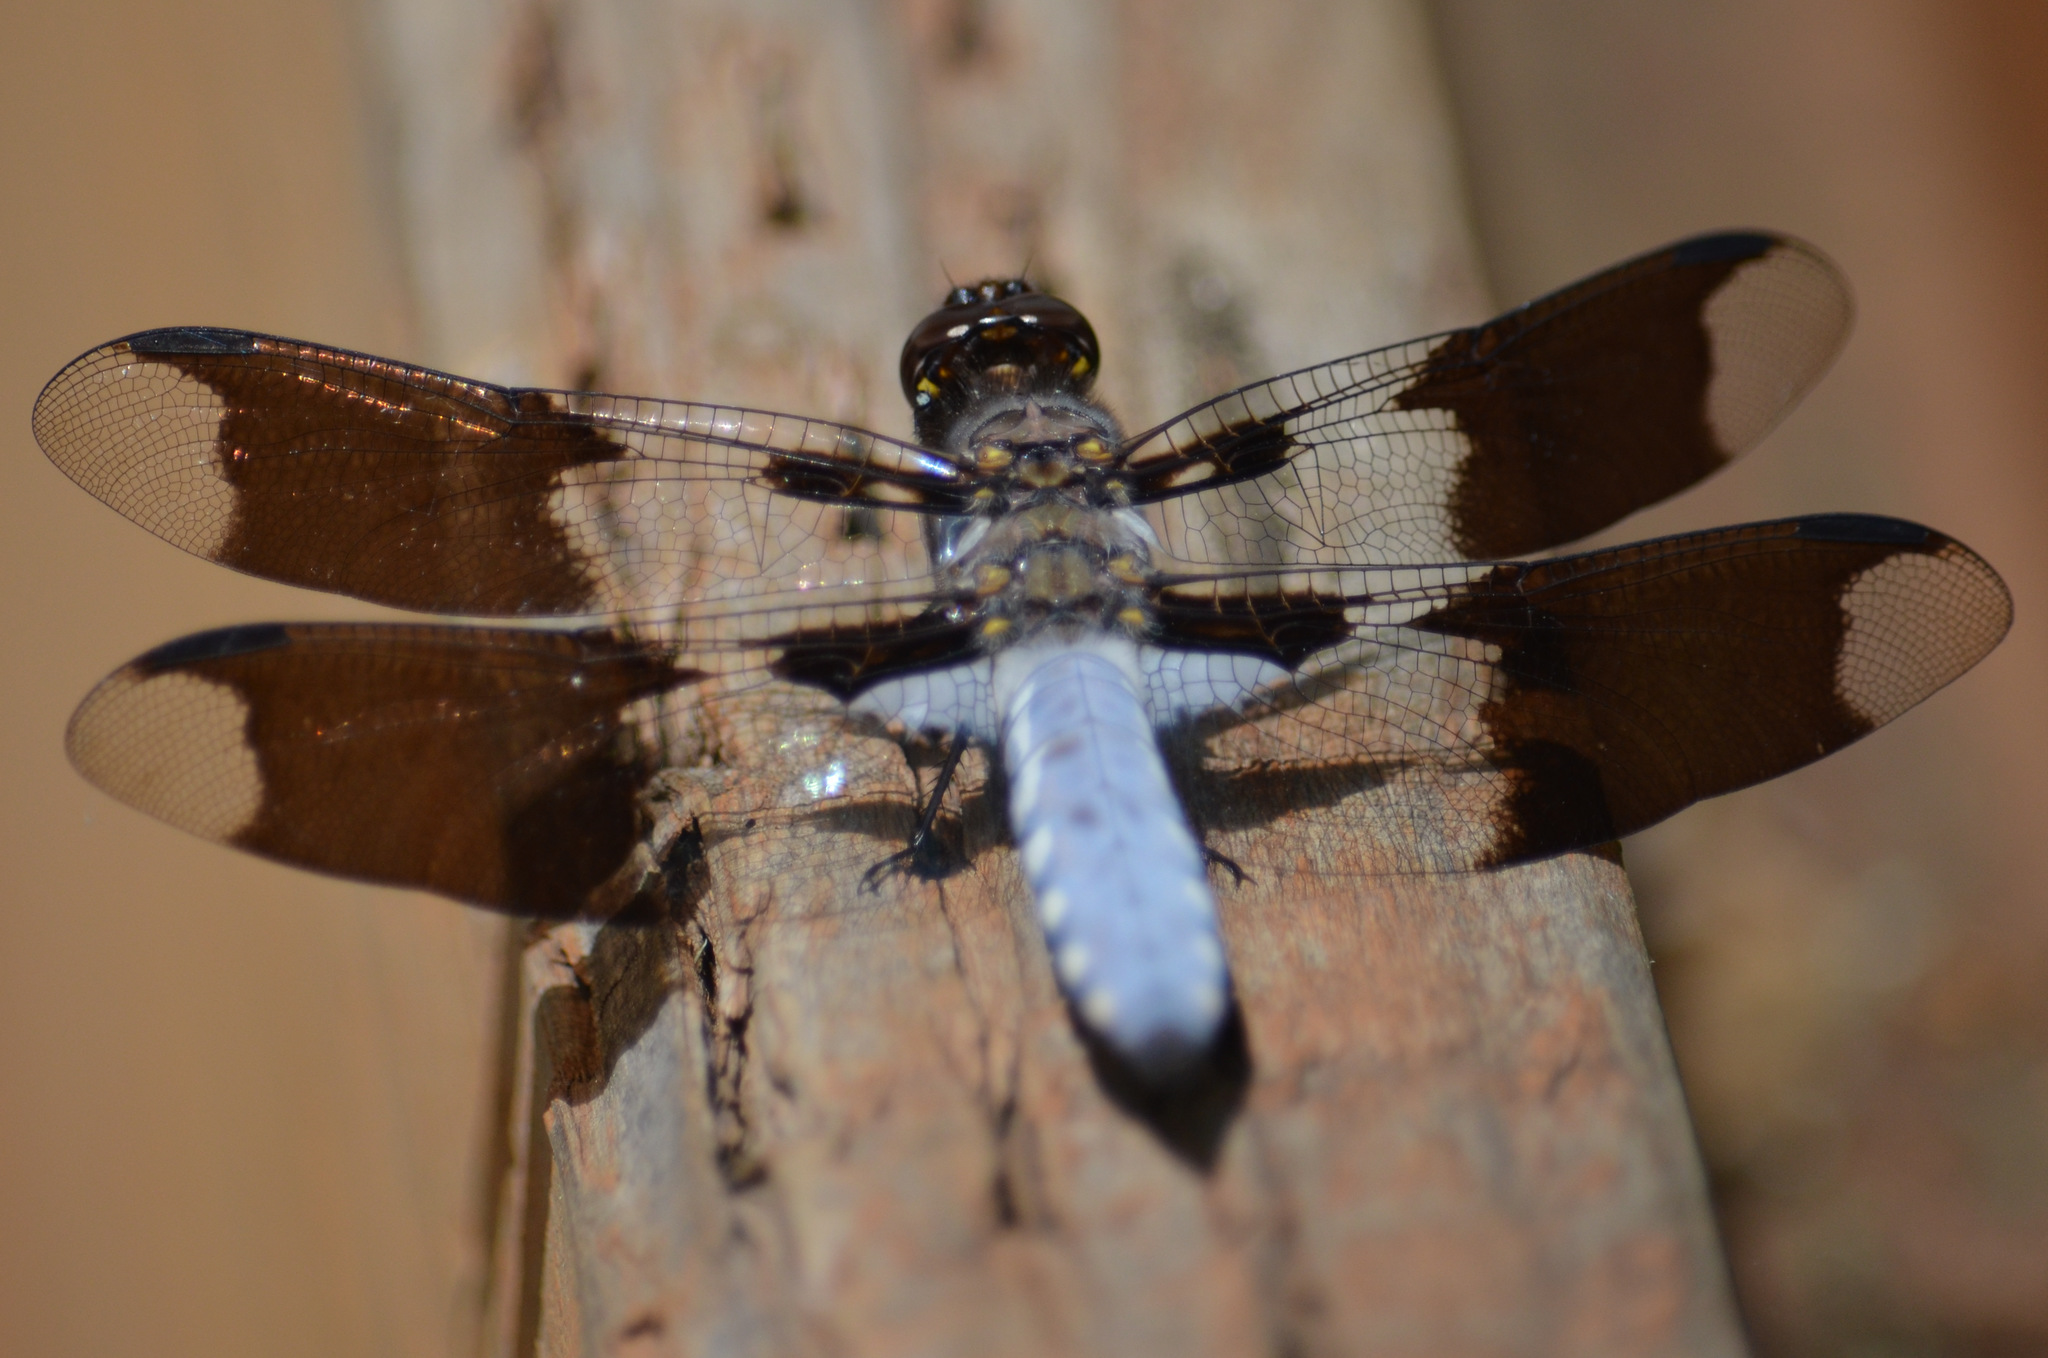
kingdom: Animalia
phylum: Arthropoda
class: Insecta
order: Odonata
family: Libellulidae
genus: Plathemis
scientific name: Plathemis lydia
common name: Common whitetail
